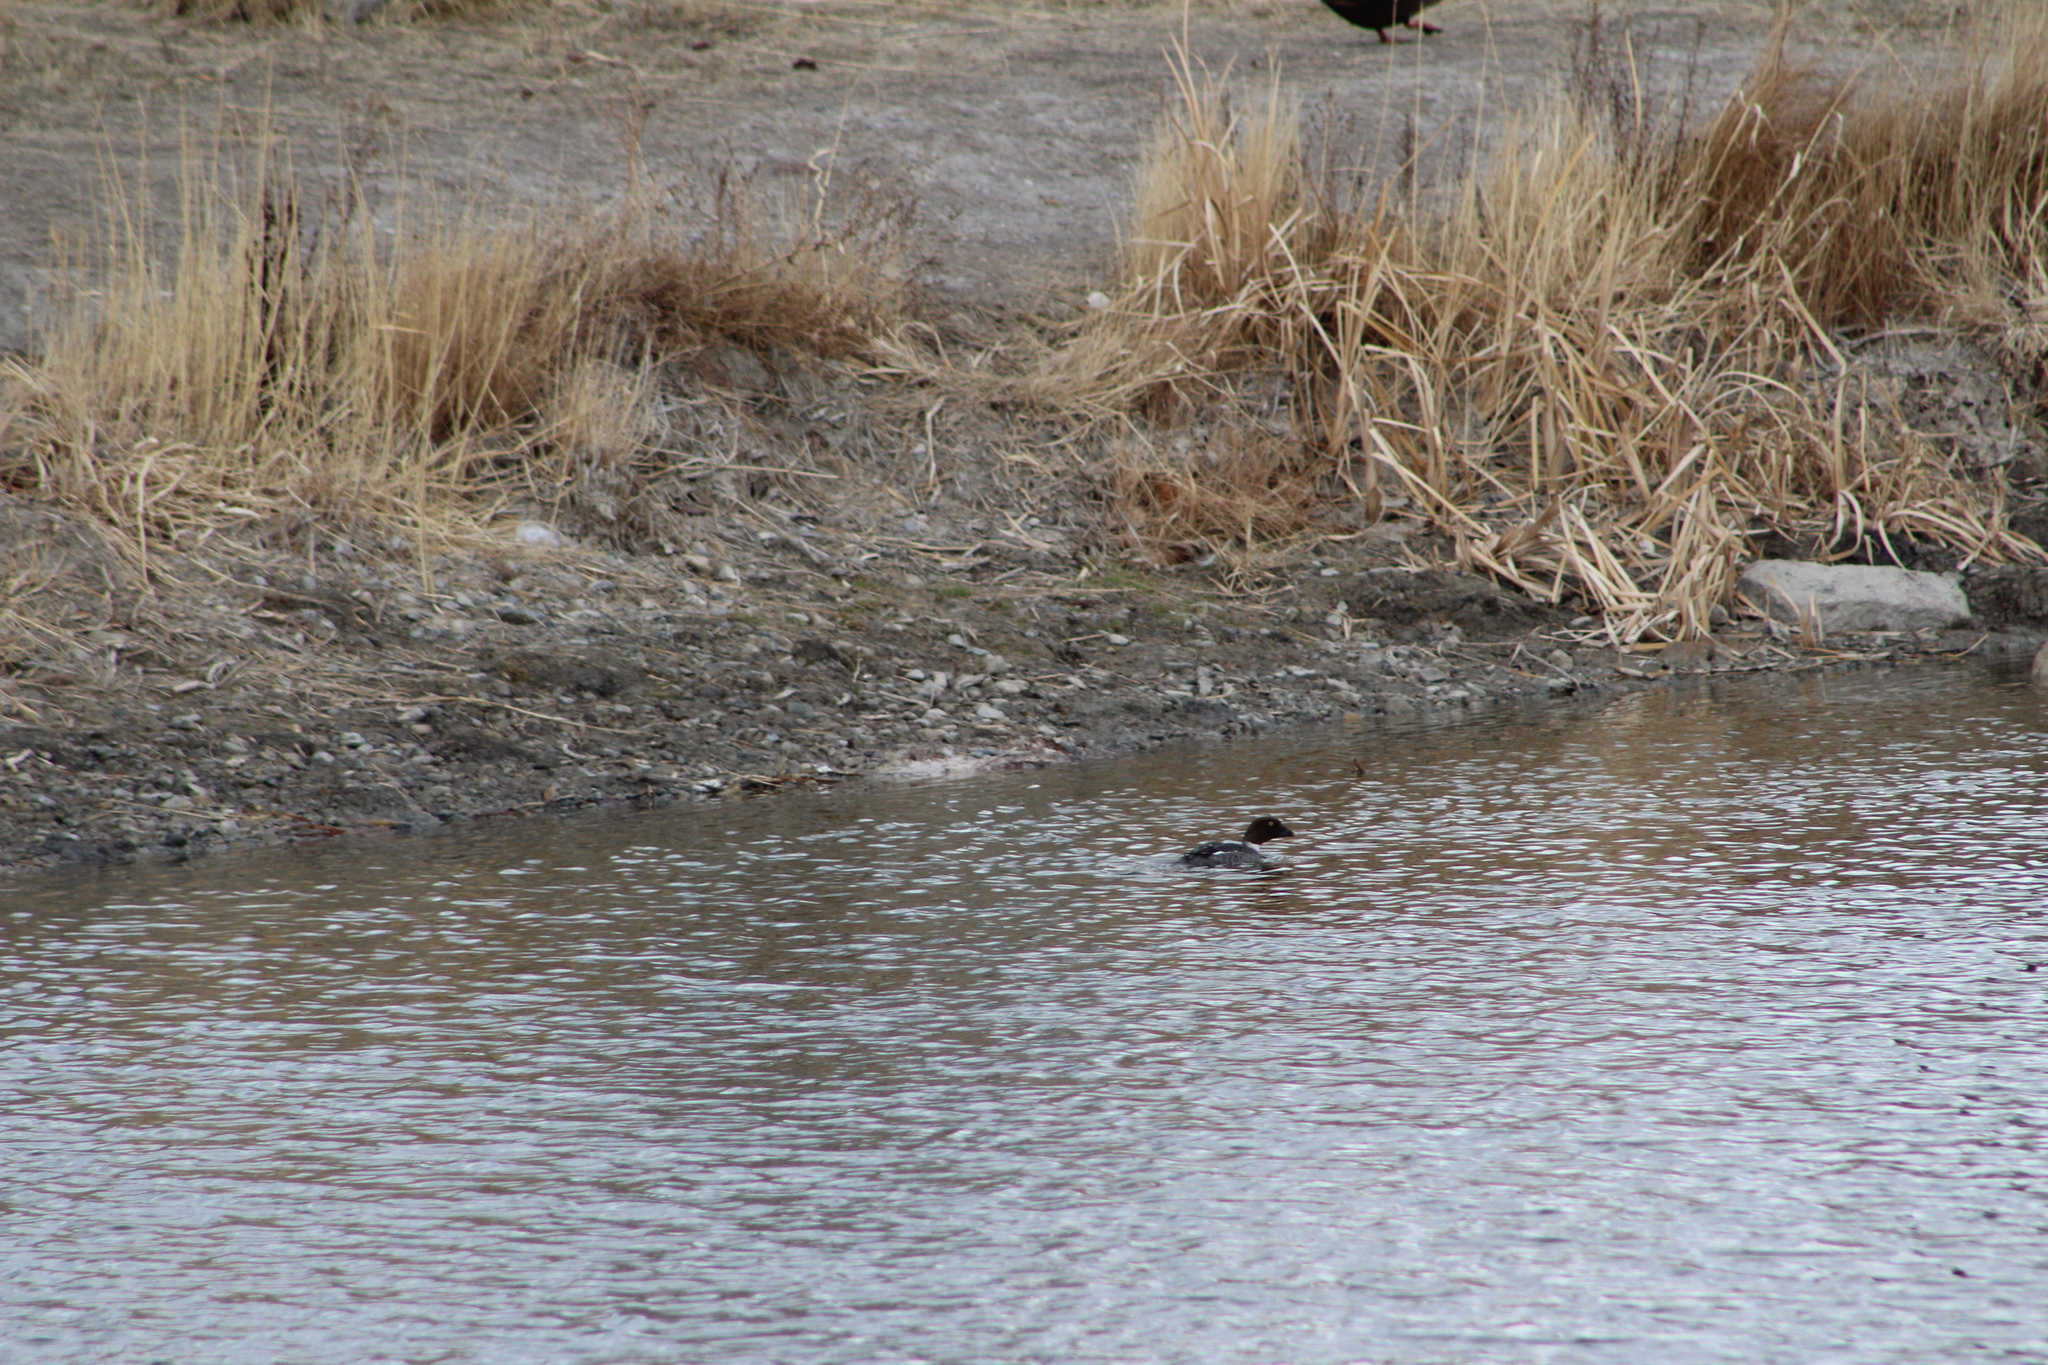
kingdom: Animalia
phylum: Chordata
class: Aves
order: Anseriformes
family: Anatidae
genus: Bucephala
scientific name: Bucephala clangula
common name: Common goldeneye
